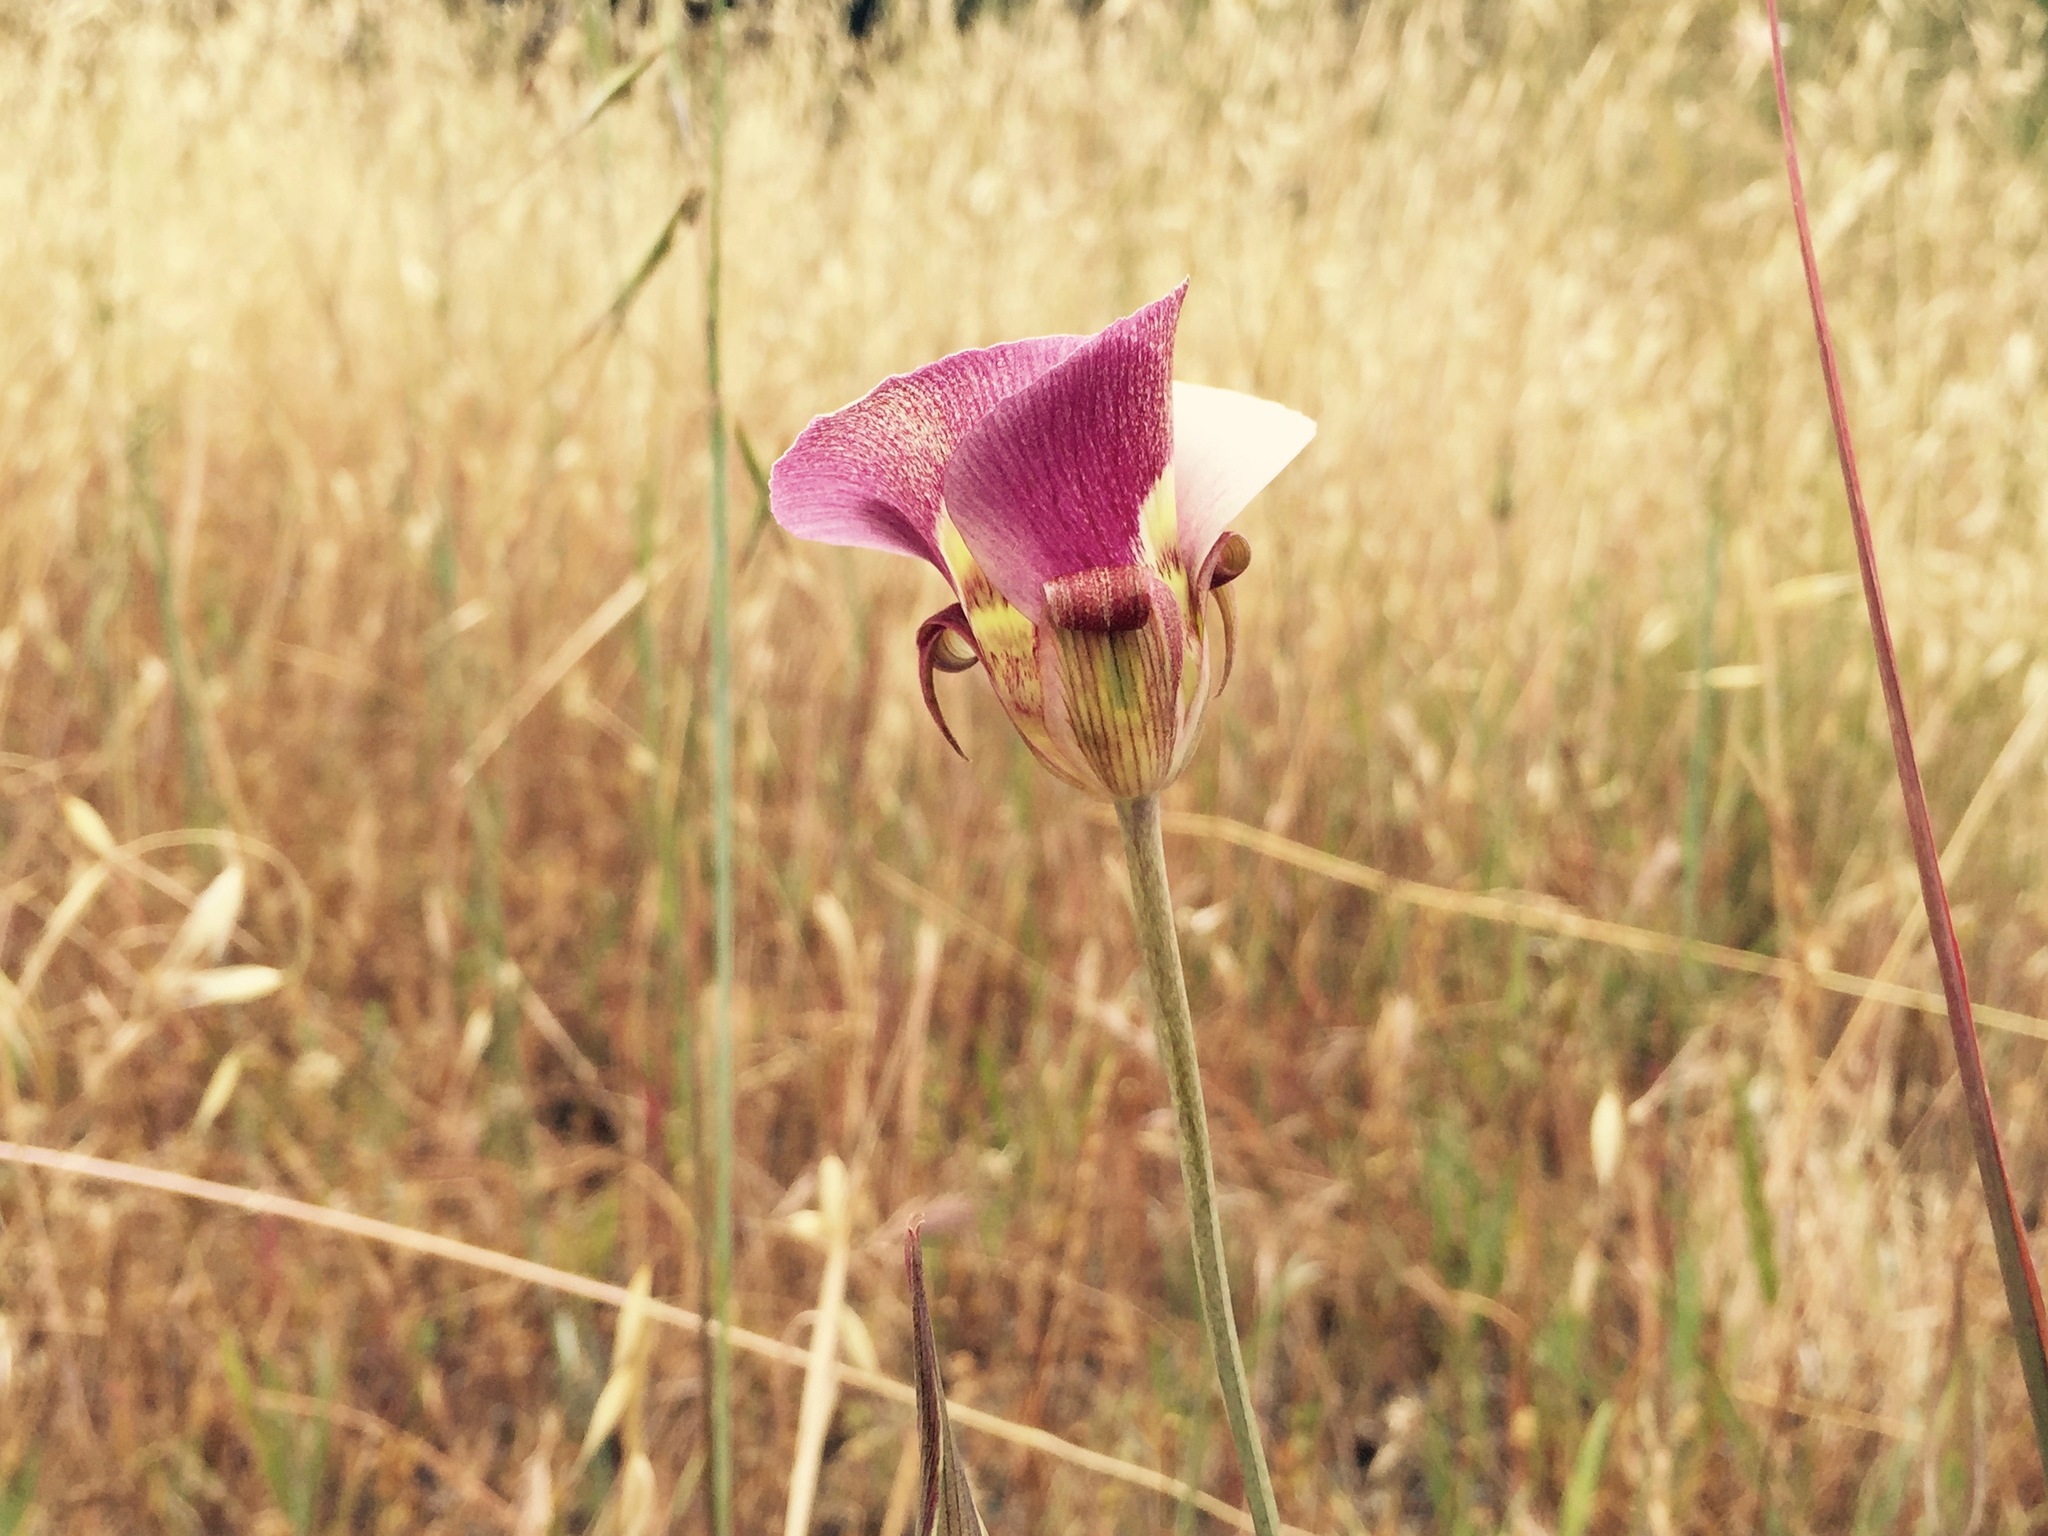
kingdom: Plantae
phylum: Tracheophyta
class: Liliopsida
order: Liliales
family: Liliaceae
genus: Calochortus
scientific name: Calochortus argillosus
